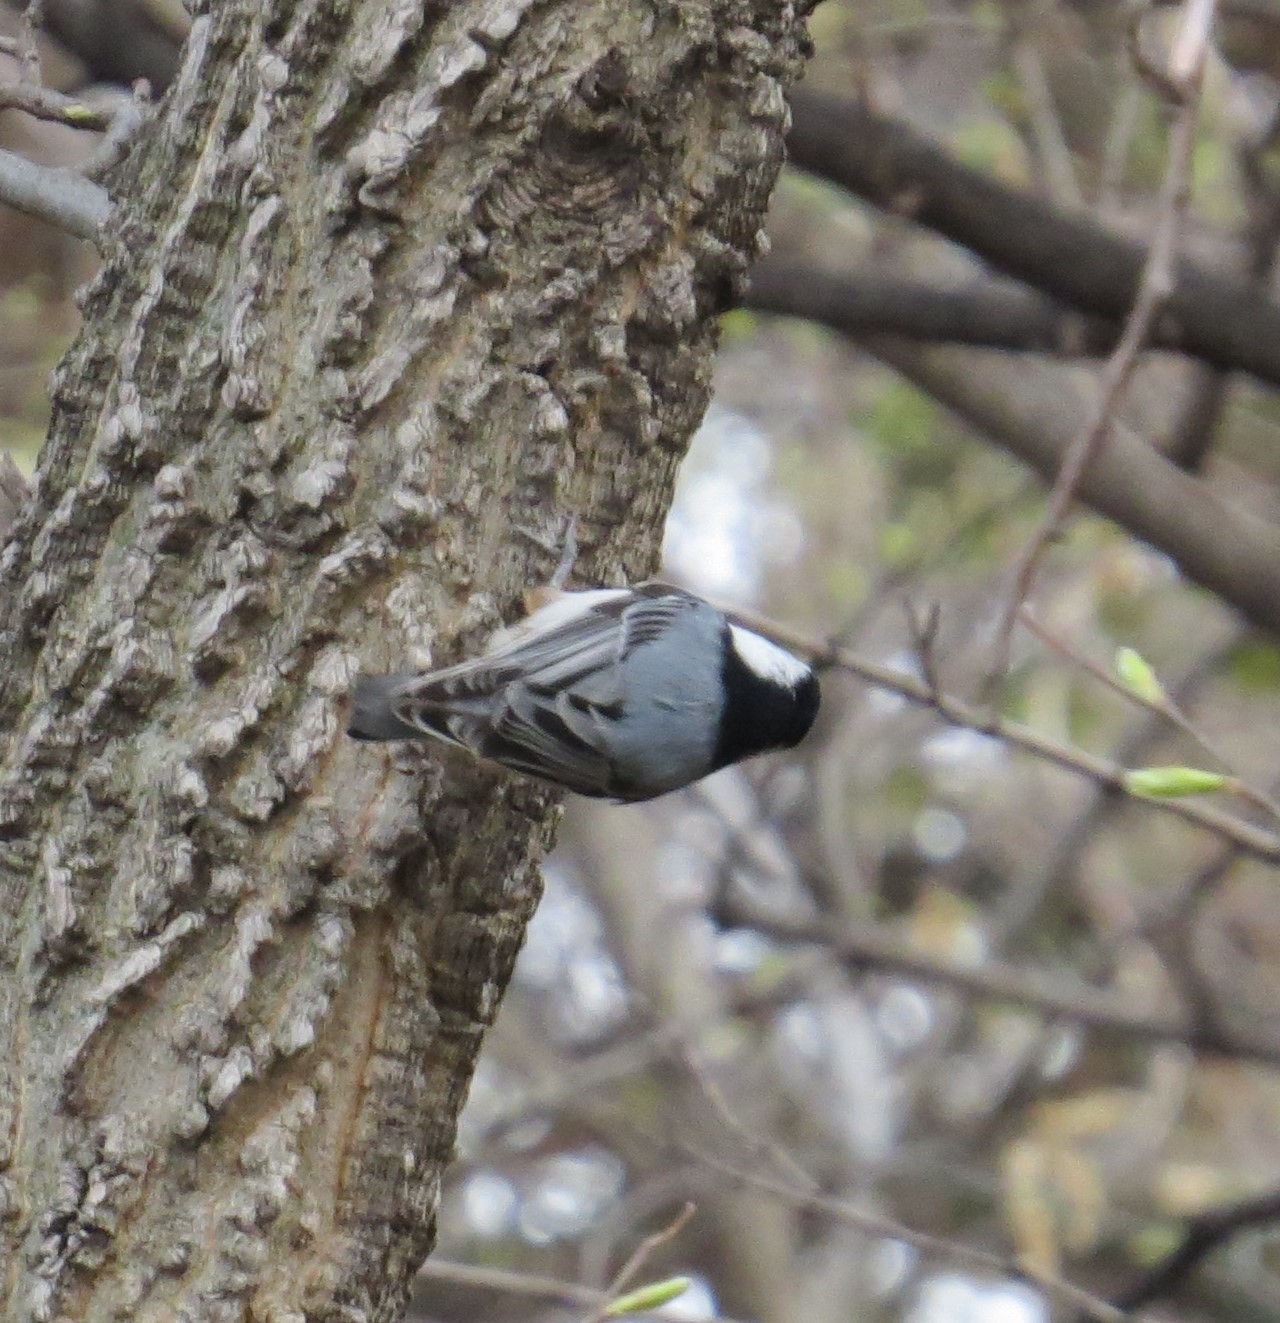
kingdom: Animalia
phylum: Chordata
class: Aves
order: Passeriformes
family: Sittidae
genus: Sitta
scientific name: Sitta carolinensis
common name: White-breasted nuthatch
